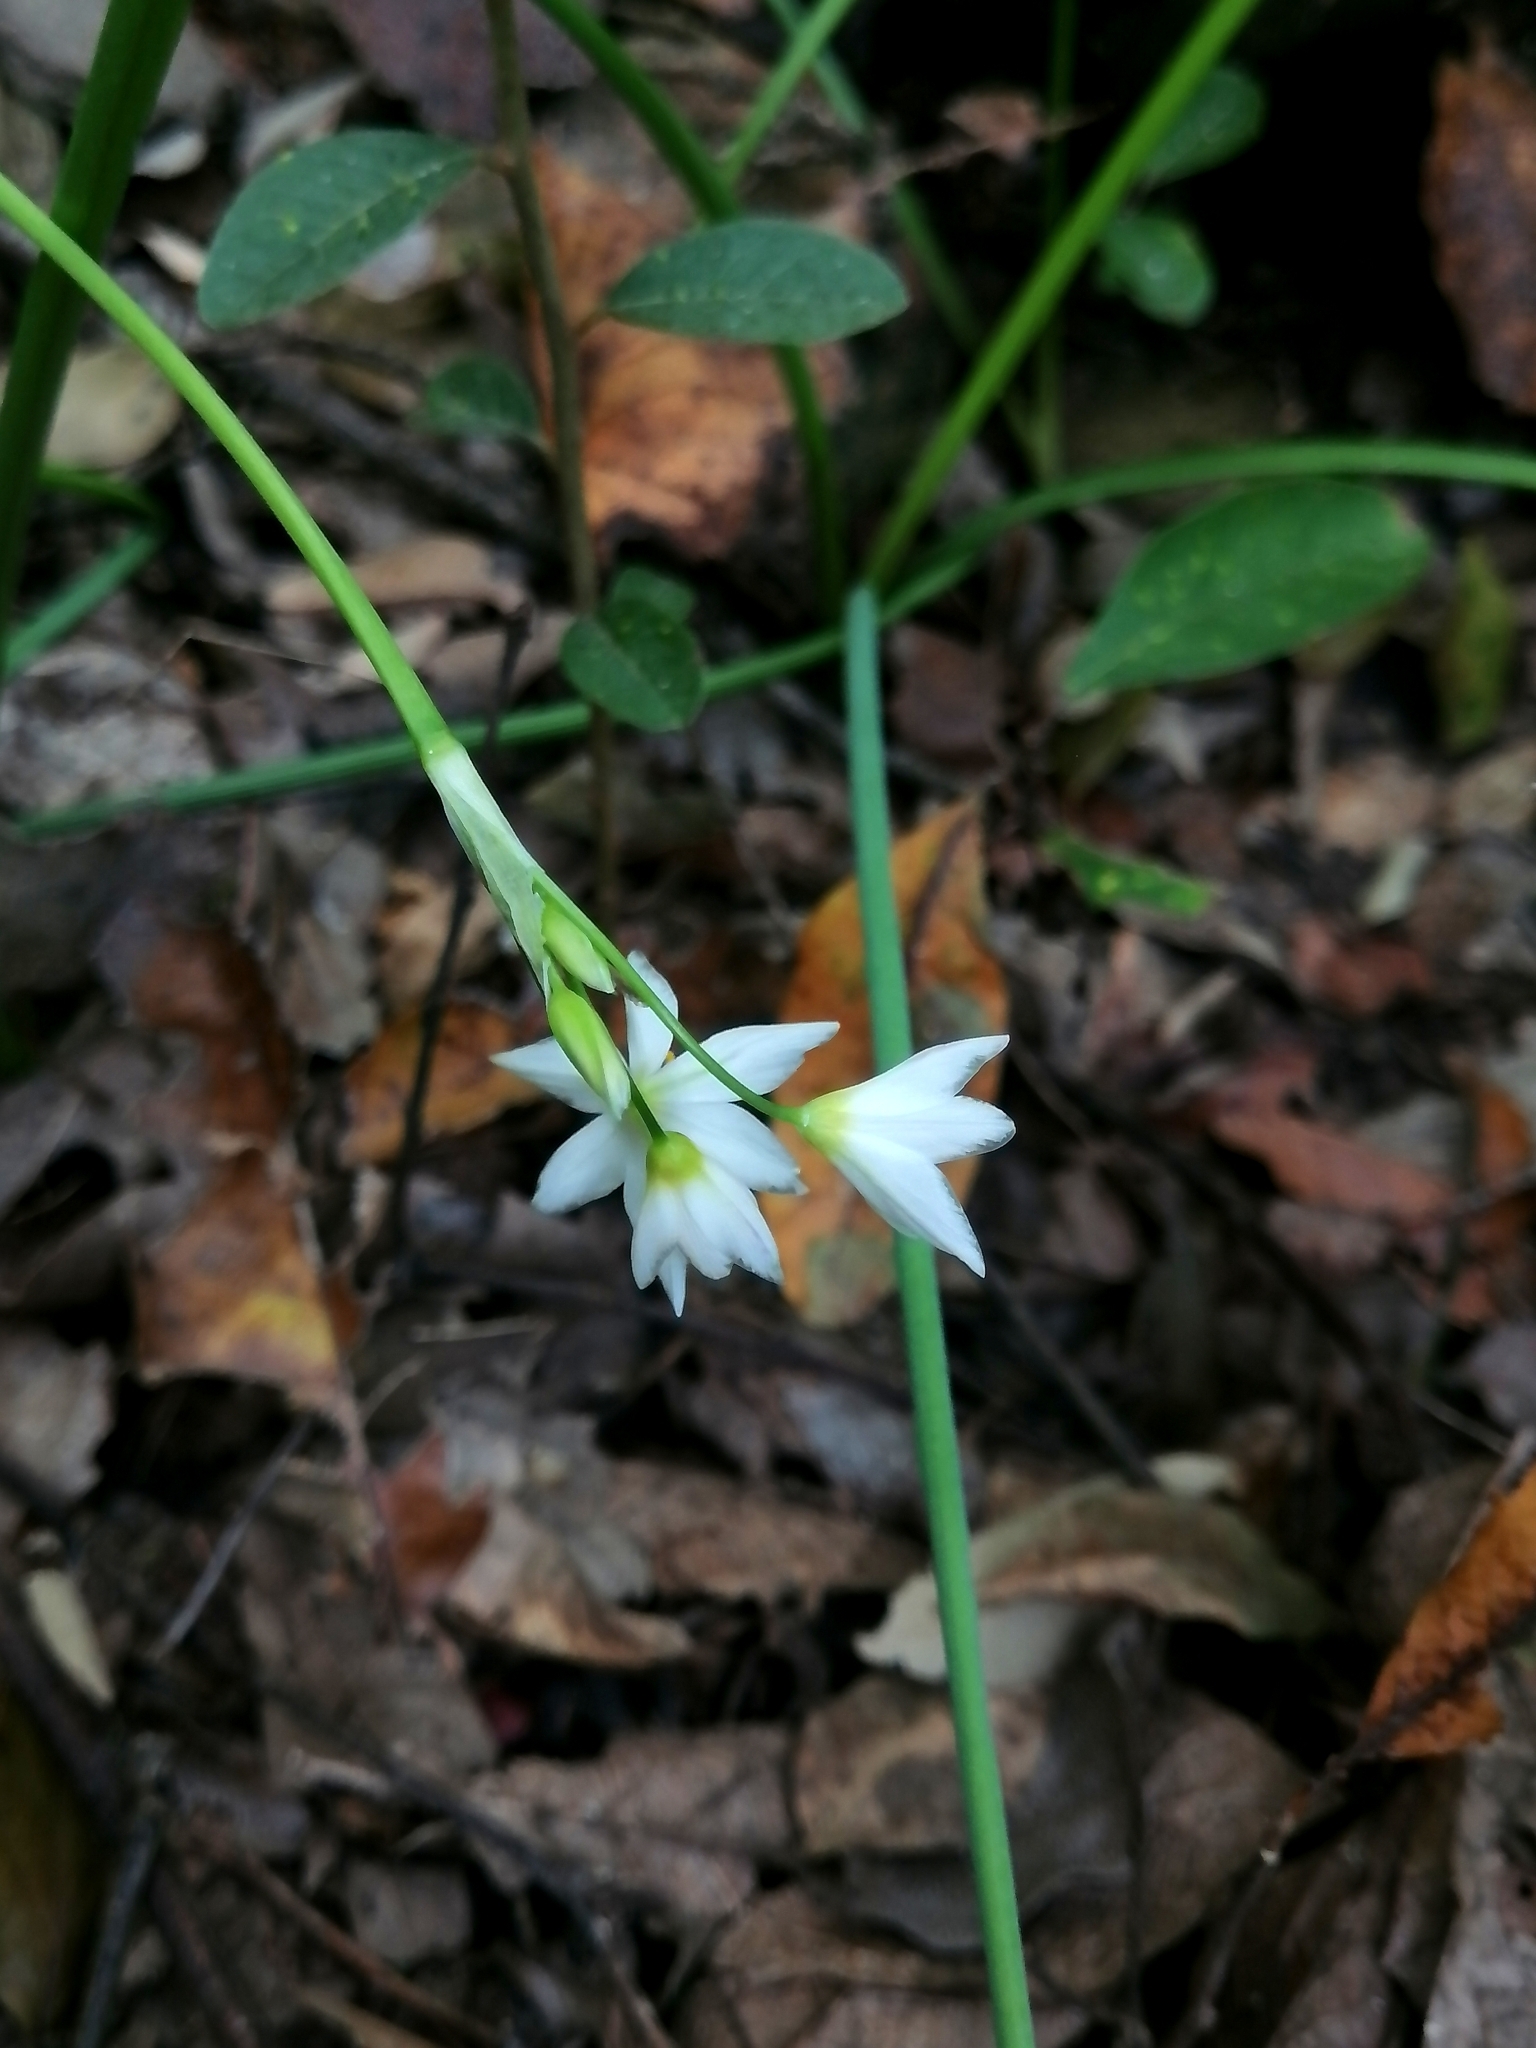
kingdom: Plantae
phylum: Tracheophyta
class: Liliopsida
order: Asparagales
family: Amaryllidaceae
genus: Nothoscordum
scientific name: Nothoscordum bivalve
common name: Crow-poison
